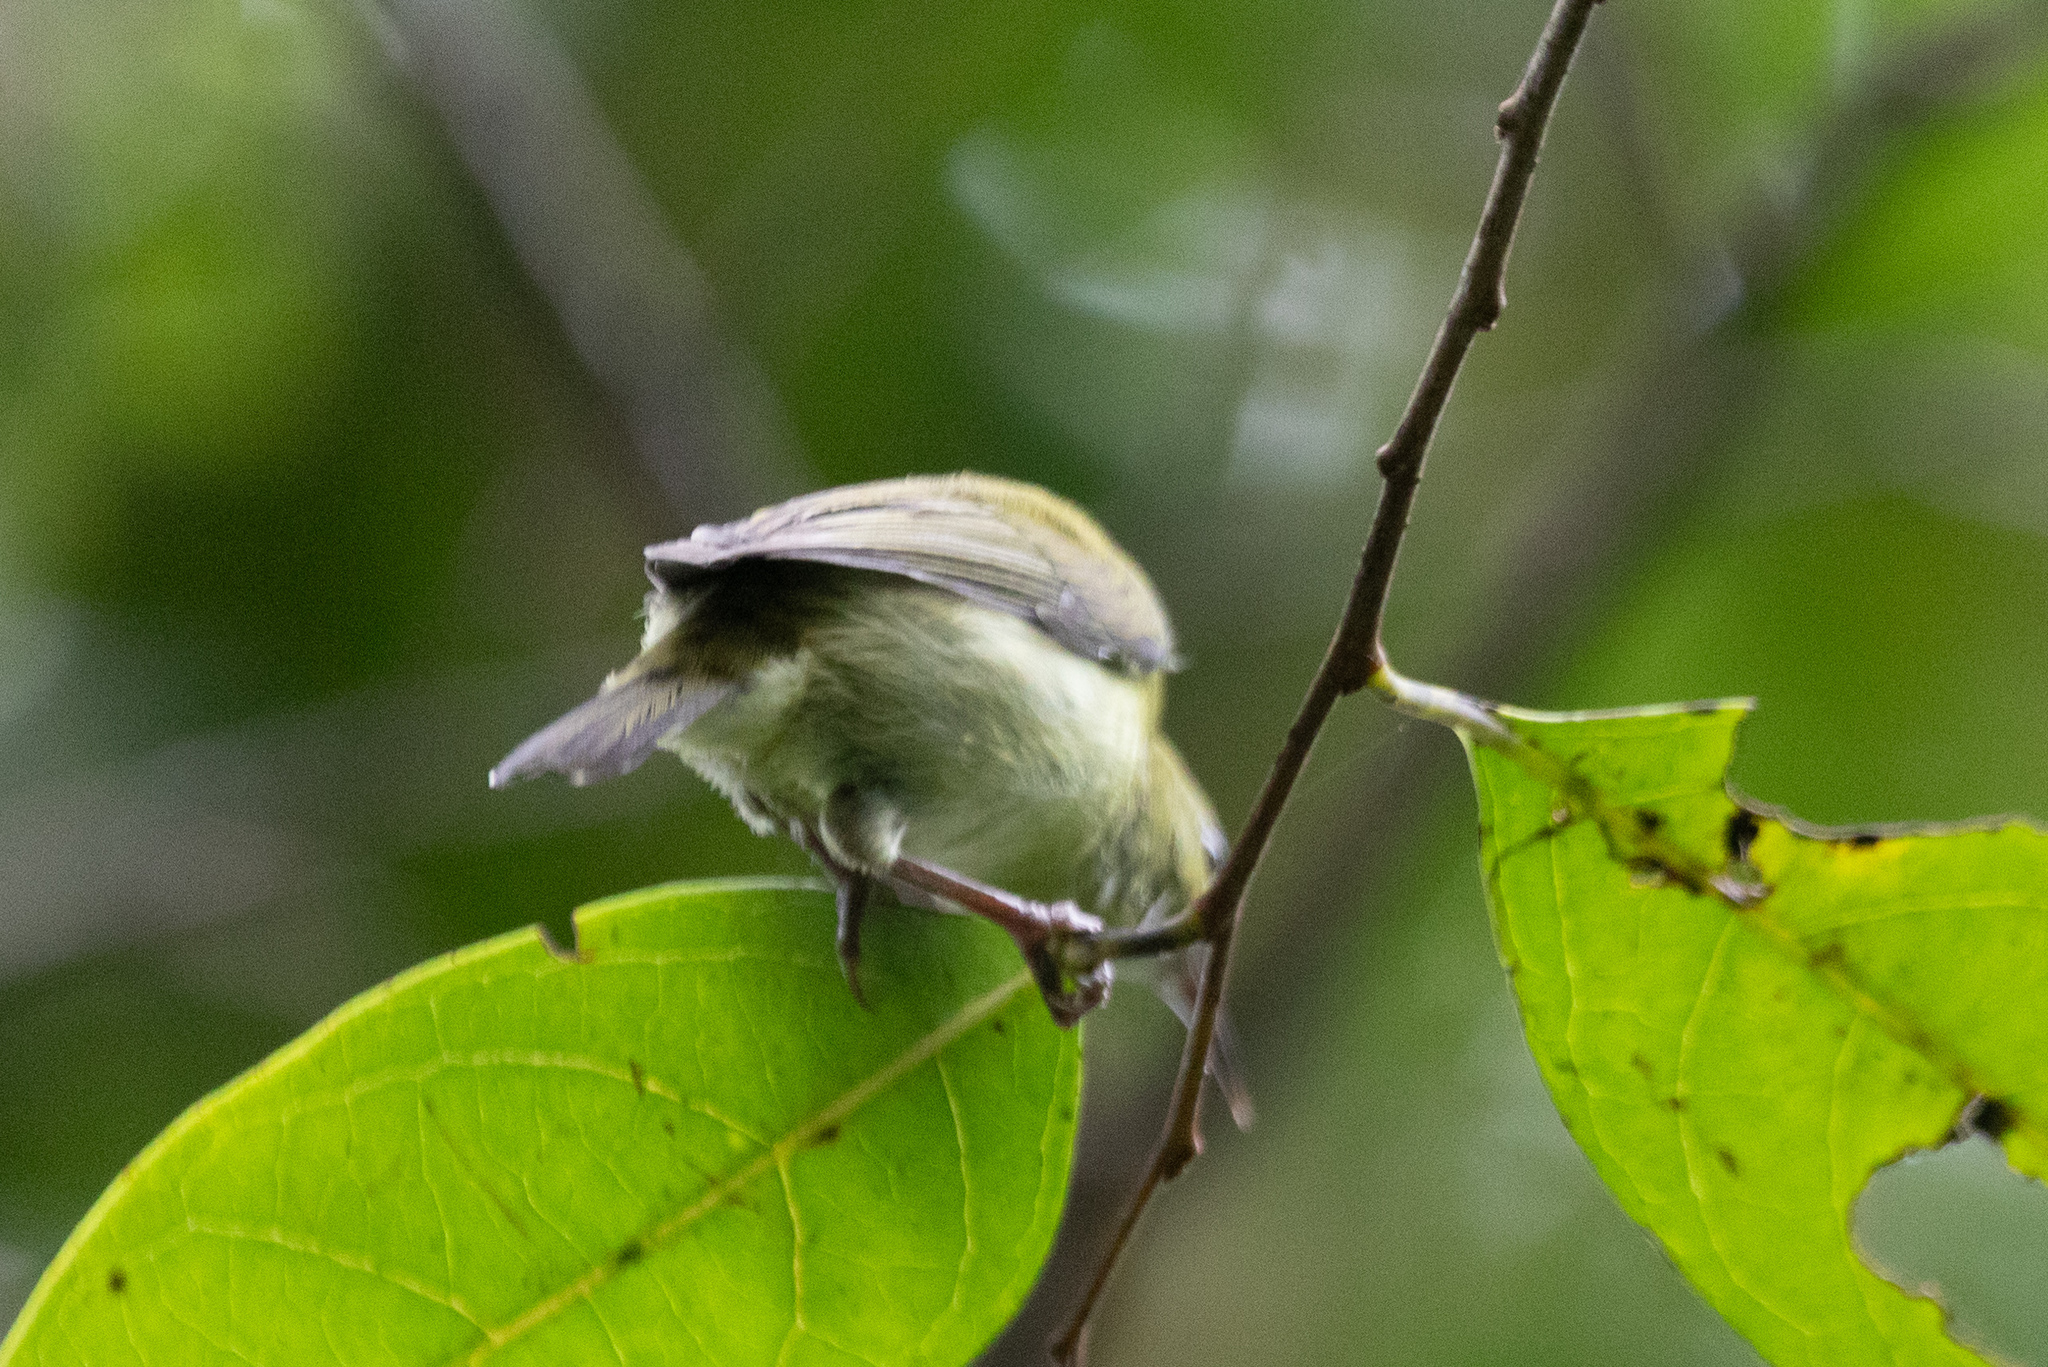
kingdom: Animalia
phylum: Chordata
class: Aves
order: Passeriformes
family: Nectariniidae
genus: Aethopyga
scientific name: Aethopyga christinae
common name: Fork-tailed sunbird
